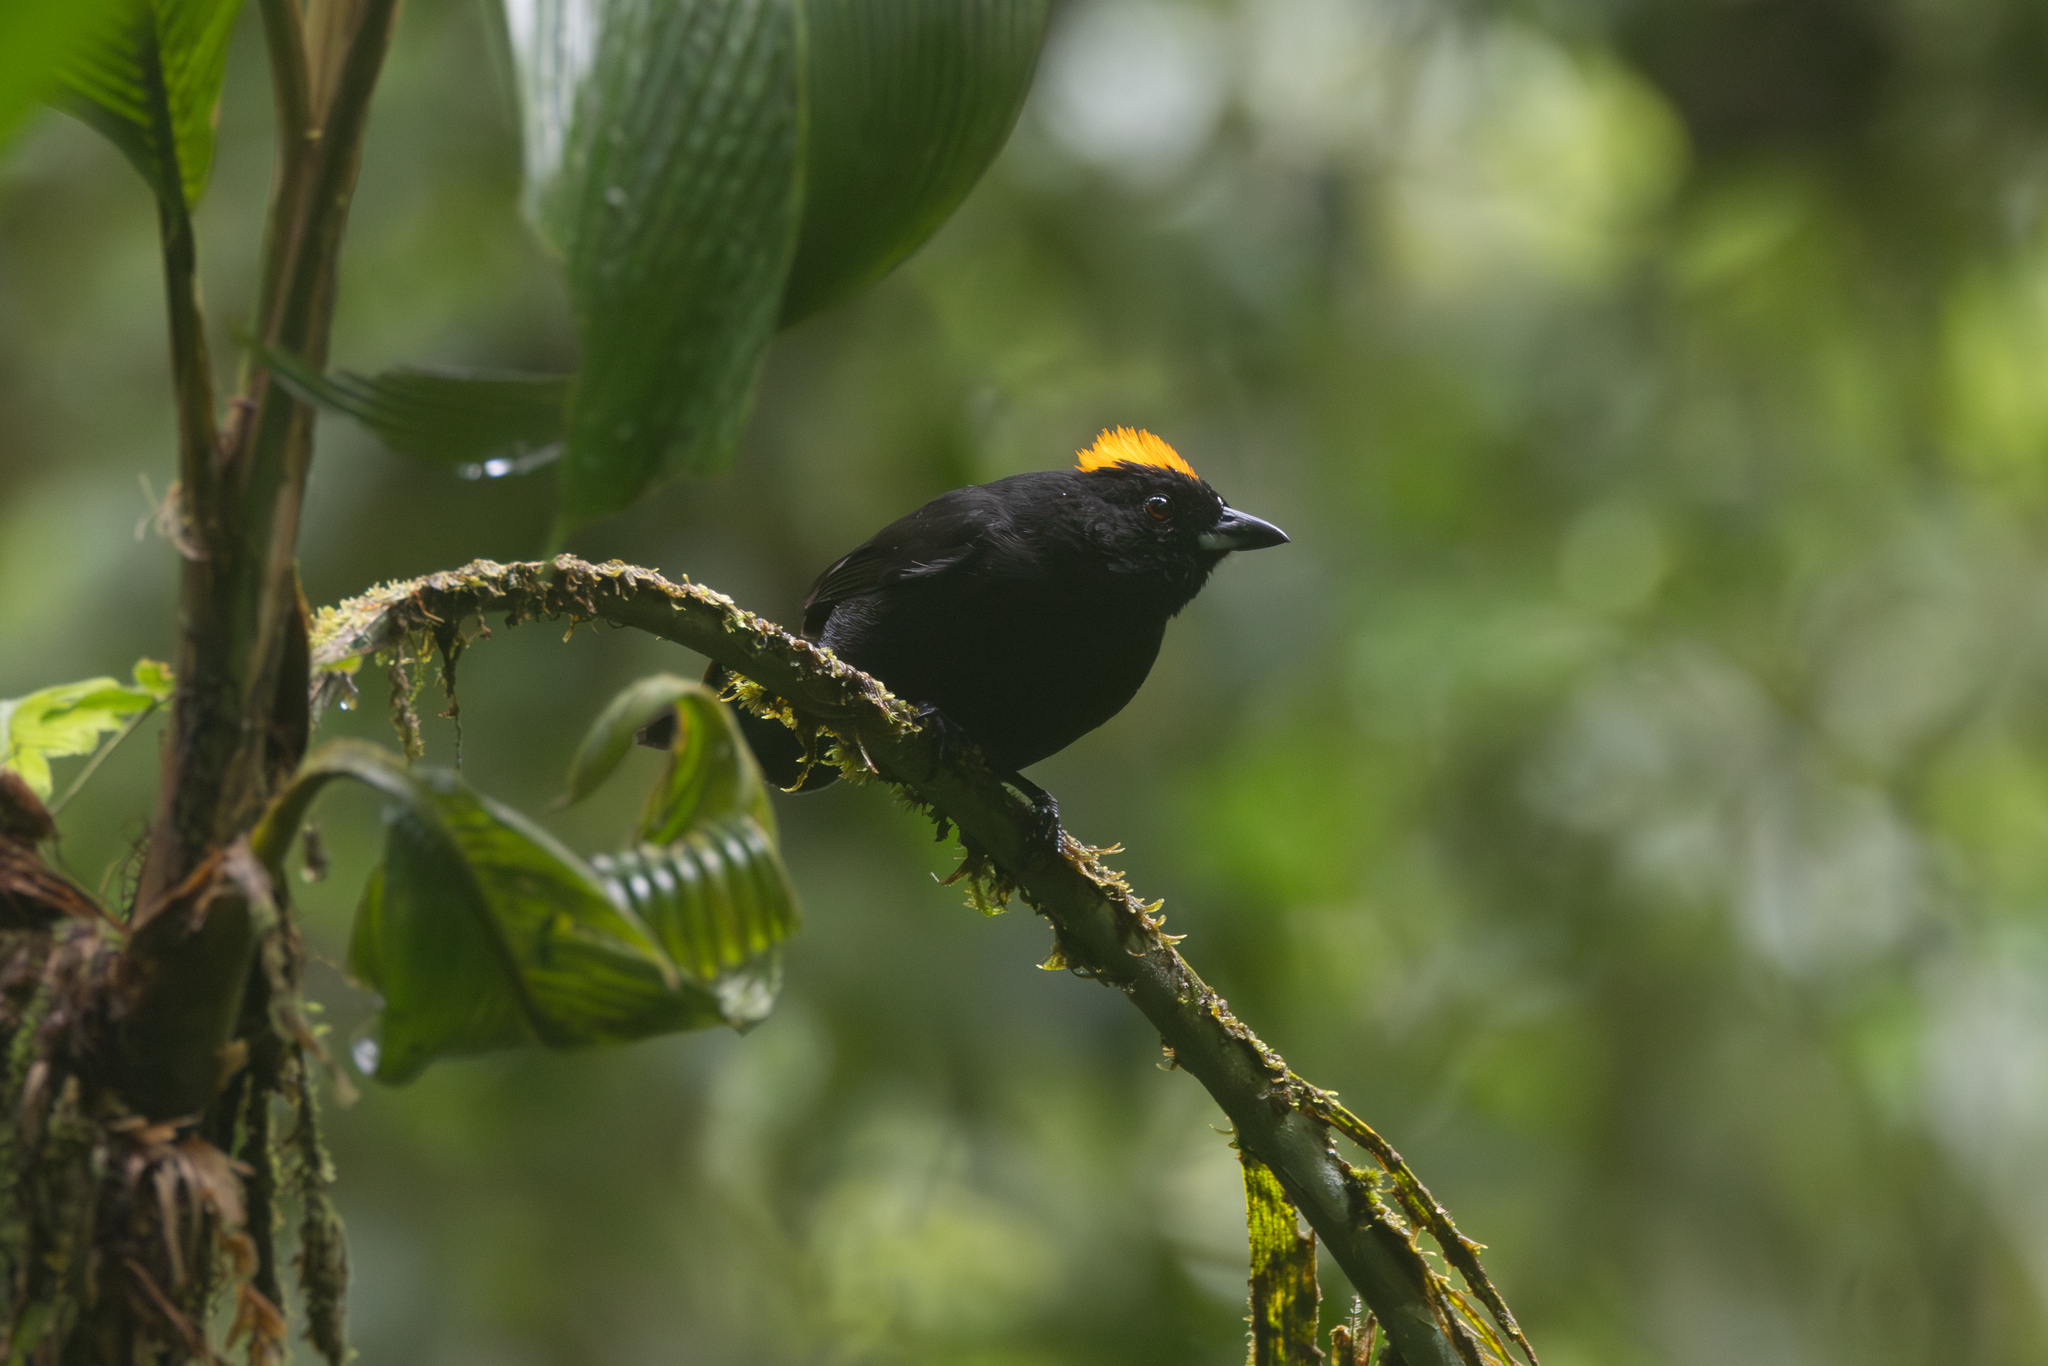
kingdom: Animalia
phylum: Chordata
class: Aves
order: Passeriformes
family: Thraupidae
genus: Tachyphonus
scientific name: Tachyphonus delatrii
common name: Tawny-crested tanager
